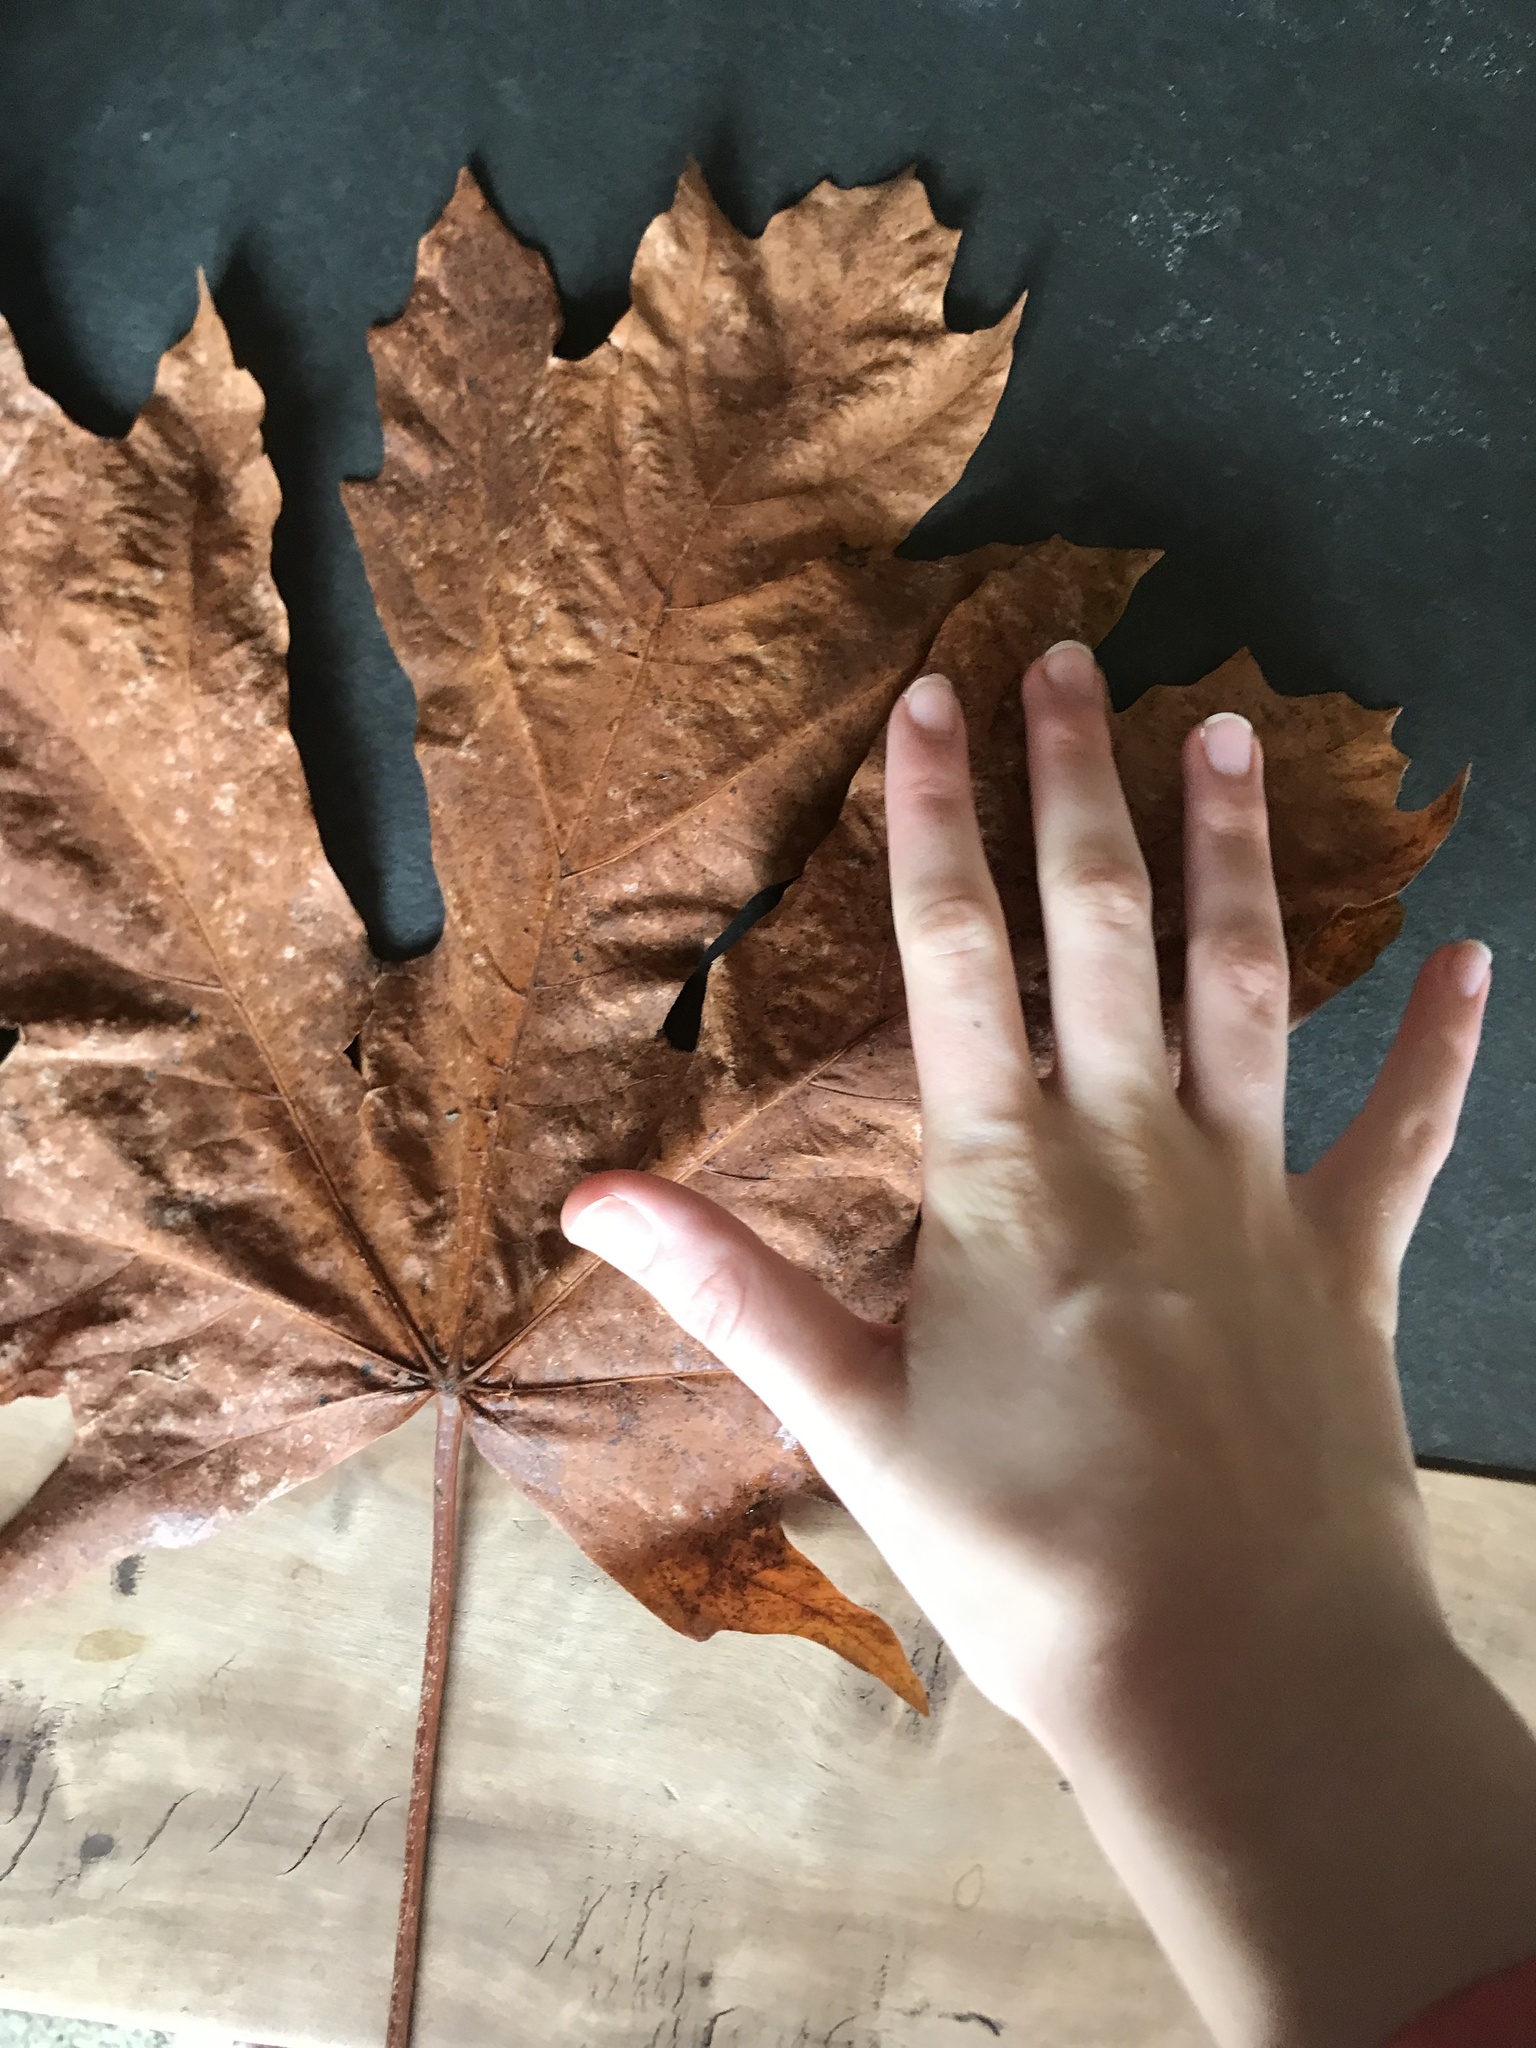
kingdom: Plantae
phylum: Tracheophyta
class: Magnoliopsida
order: Sapindales
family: Sapindaceae
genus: Acer
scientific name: Acer macrophyllum
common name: Oregon maple
